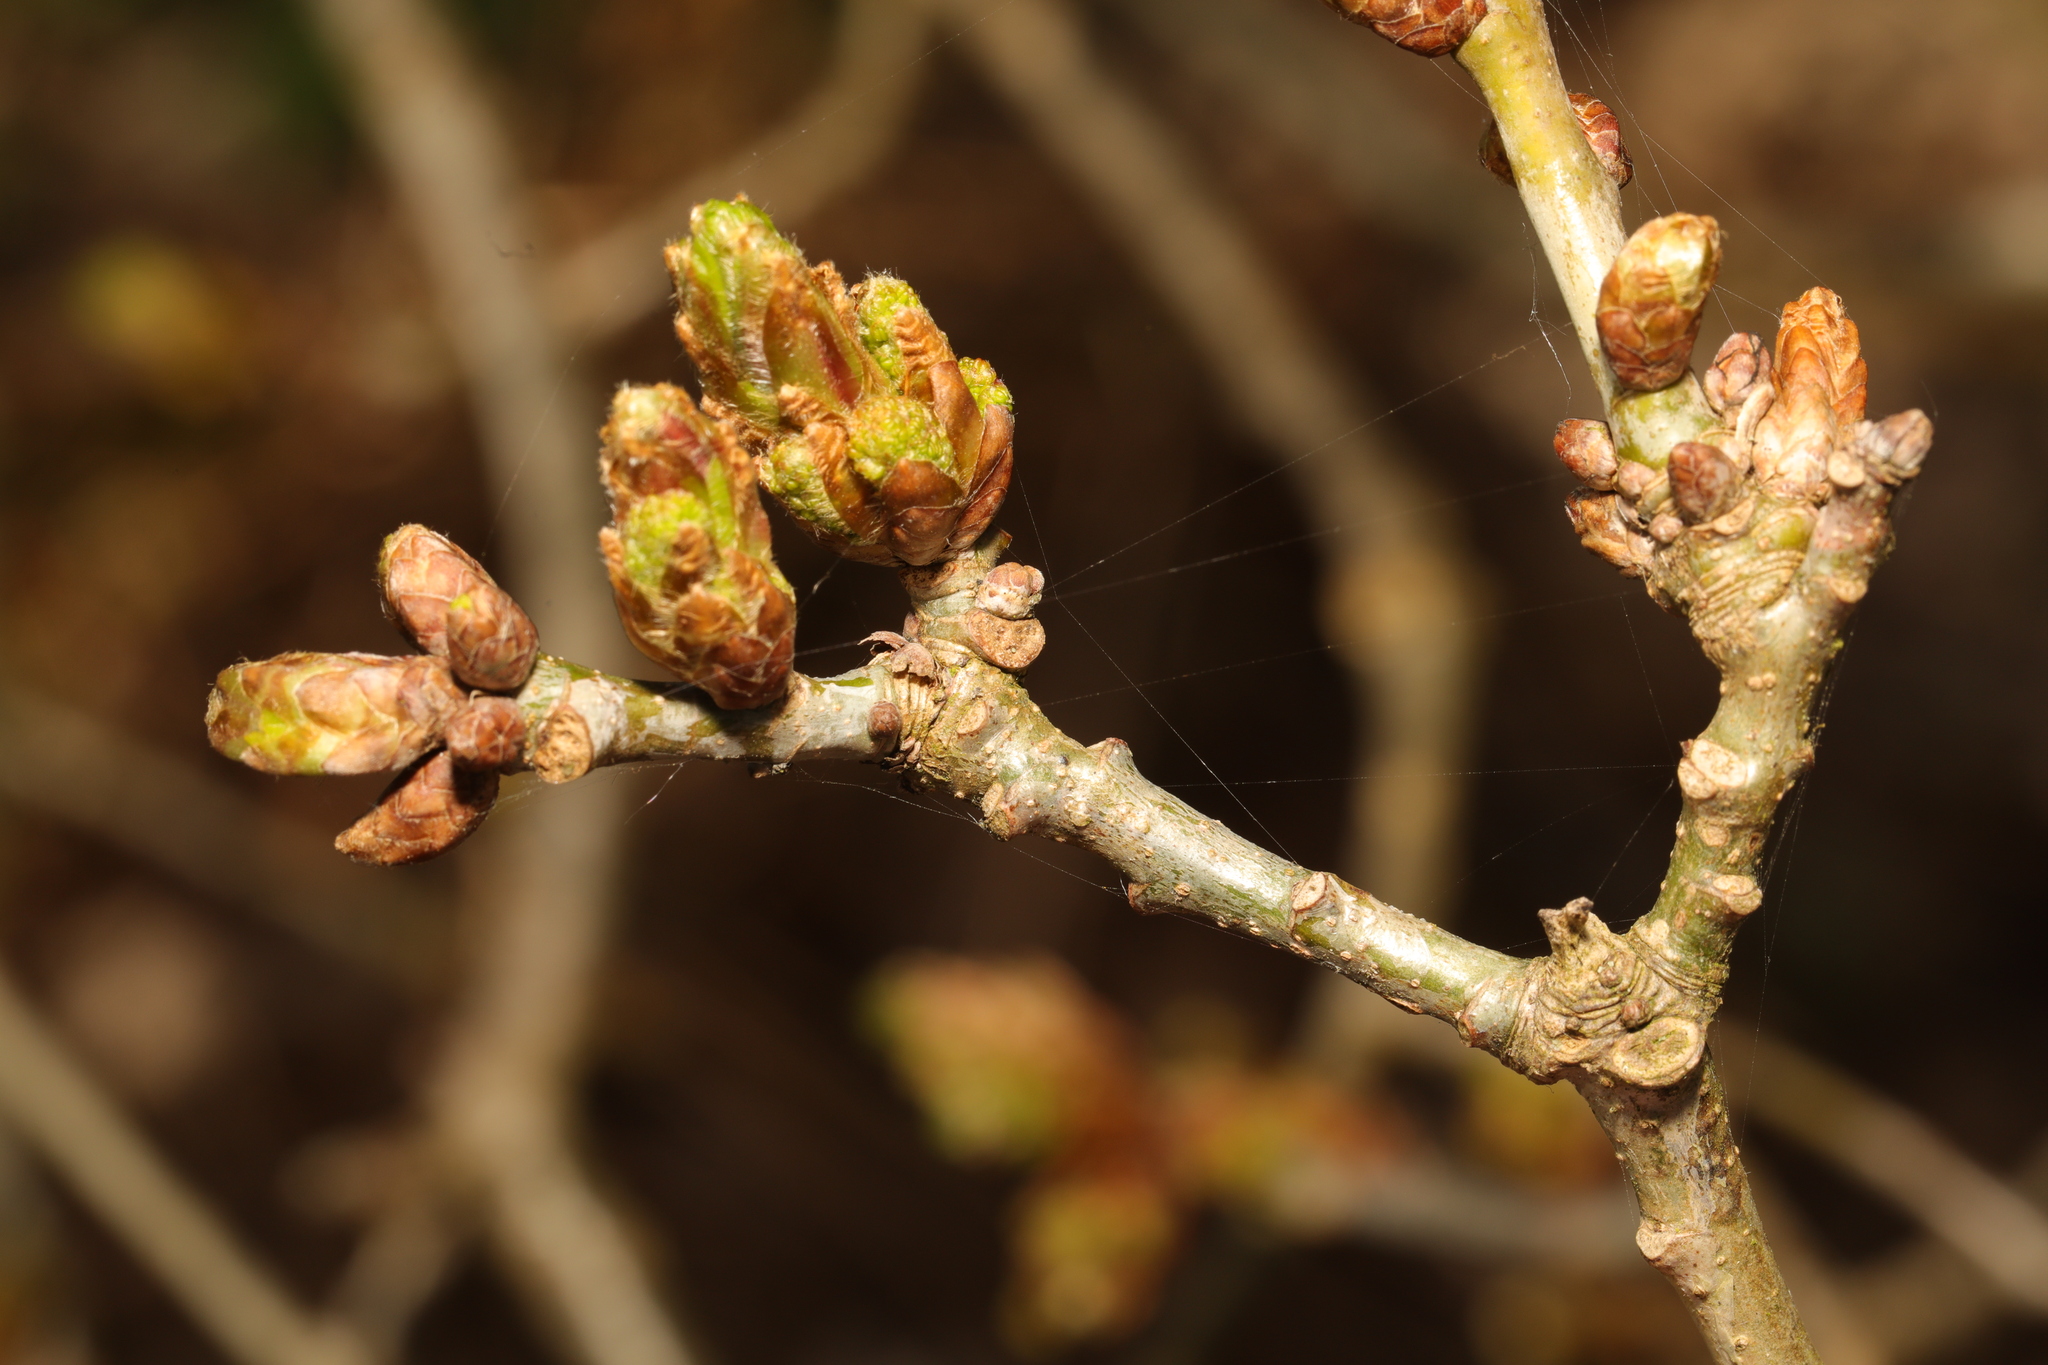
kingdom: Plantae
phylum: Tracheophyta
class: Magnoliopsida
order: Fagales
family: Fagaceae
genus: Quercus
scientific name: Quercus robur
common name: Pedunculate oak
